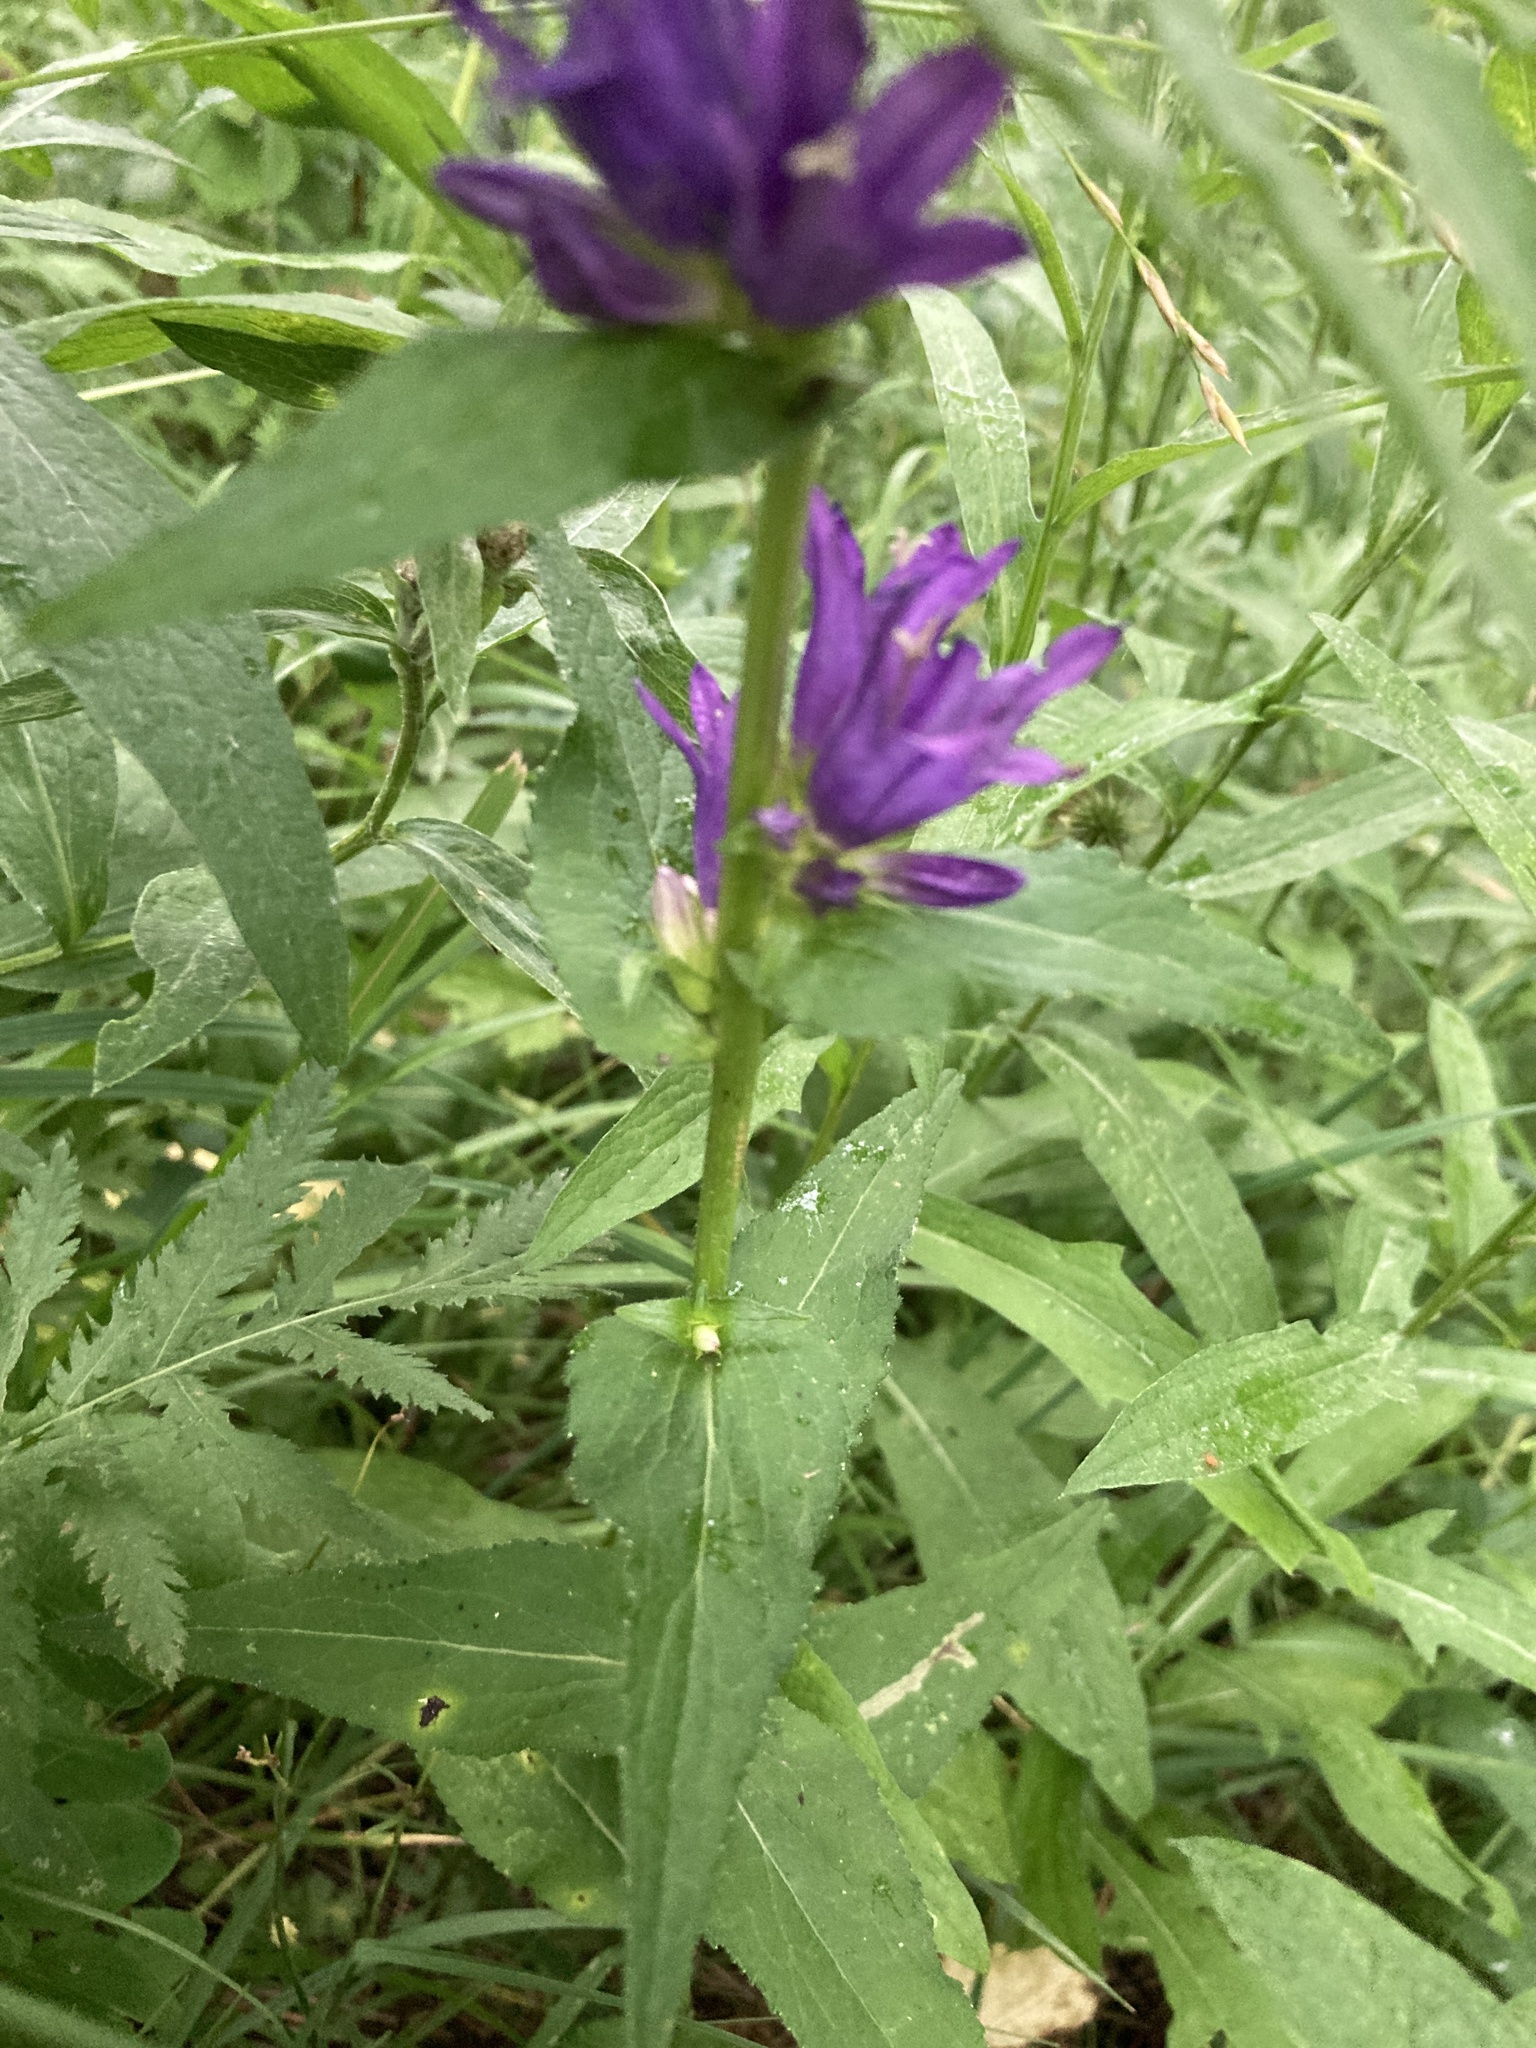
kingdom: Plantae
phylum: Tracheophyta
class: Magnoliopsida
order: Asterales
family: Campanulaceae
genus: Campanula
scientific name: Campanula glomerata
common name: Clustered bellflower
